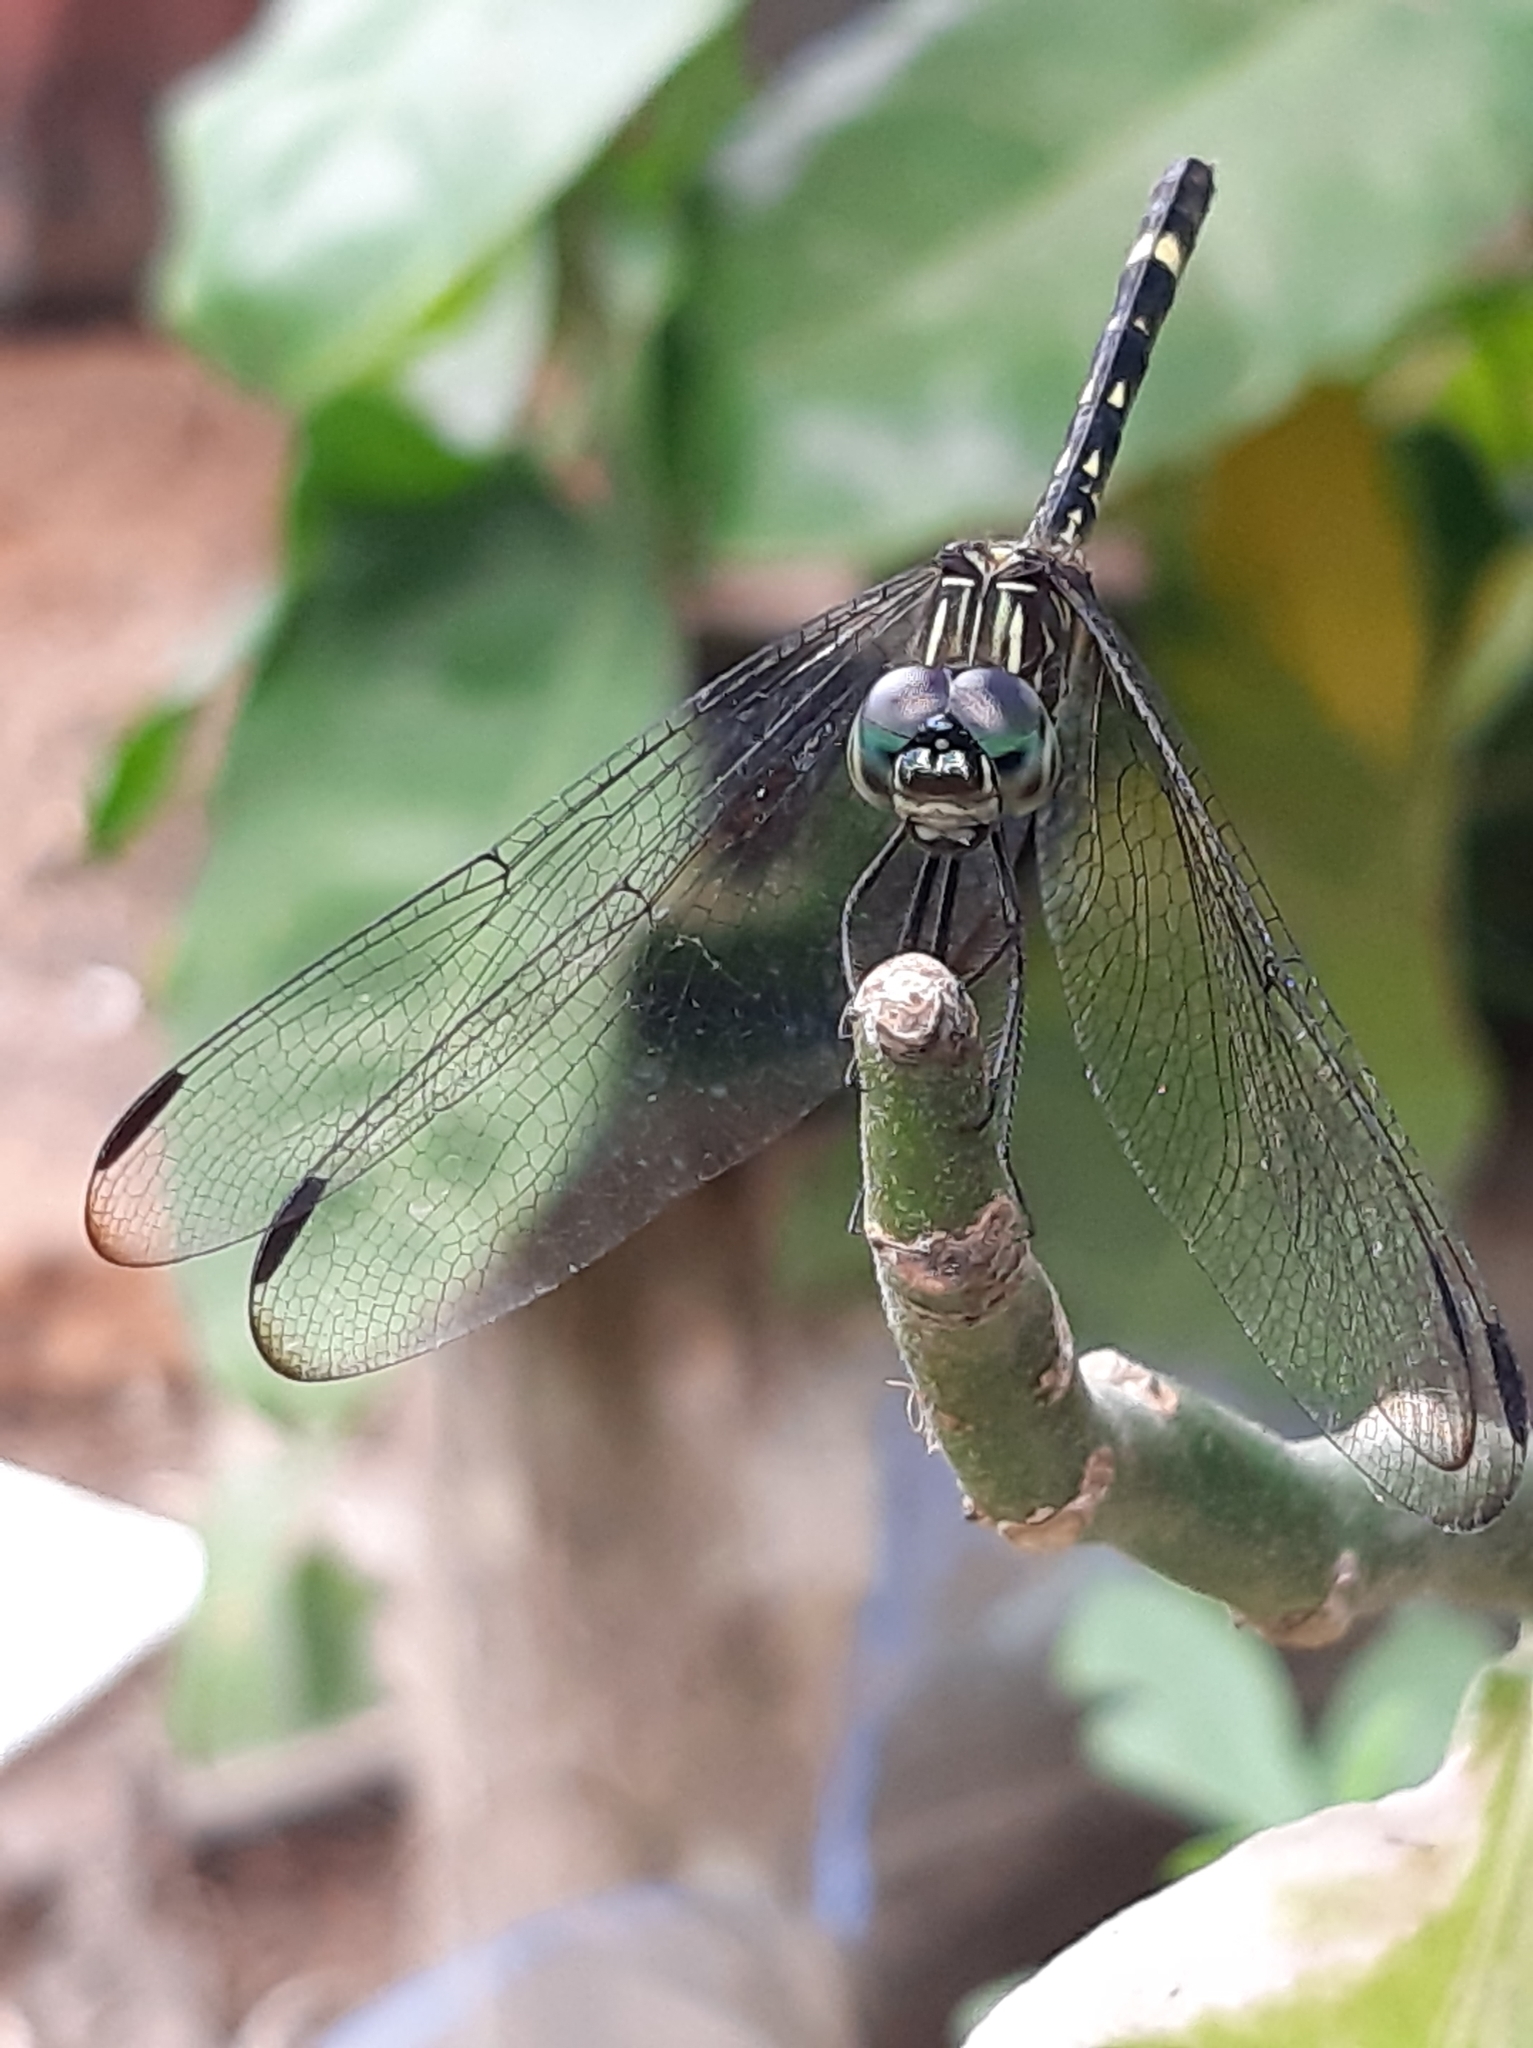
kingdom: Animalia
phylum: Arthropoda
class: Insecta
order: Odonata
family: Libellulidae
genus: Dythemis
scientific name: Dythemis nigra
